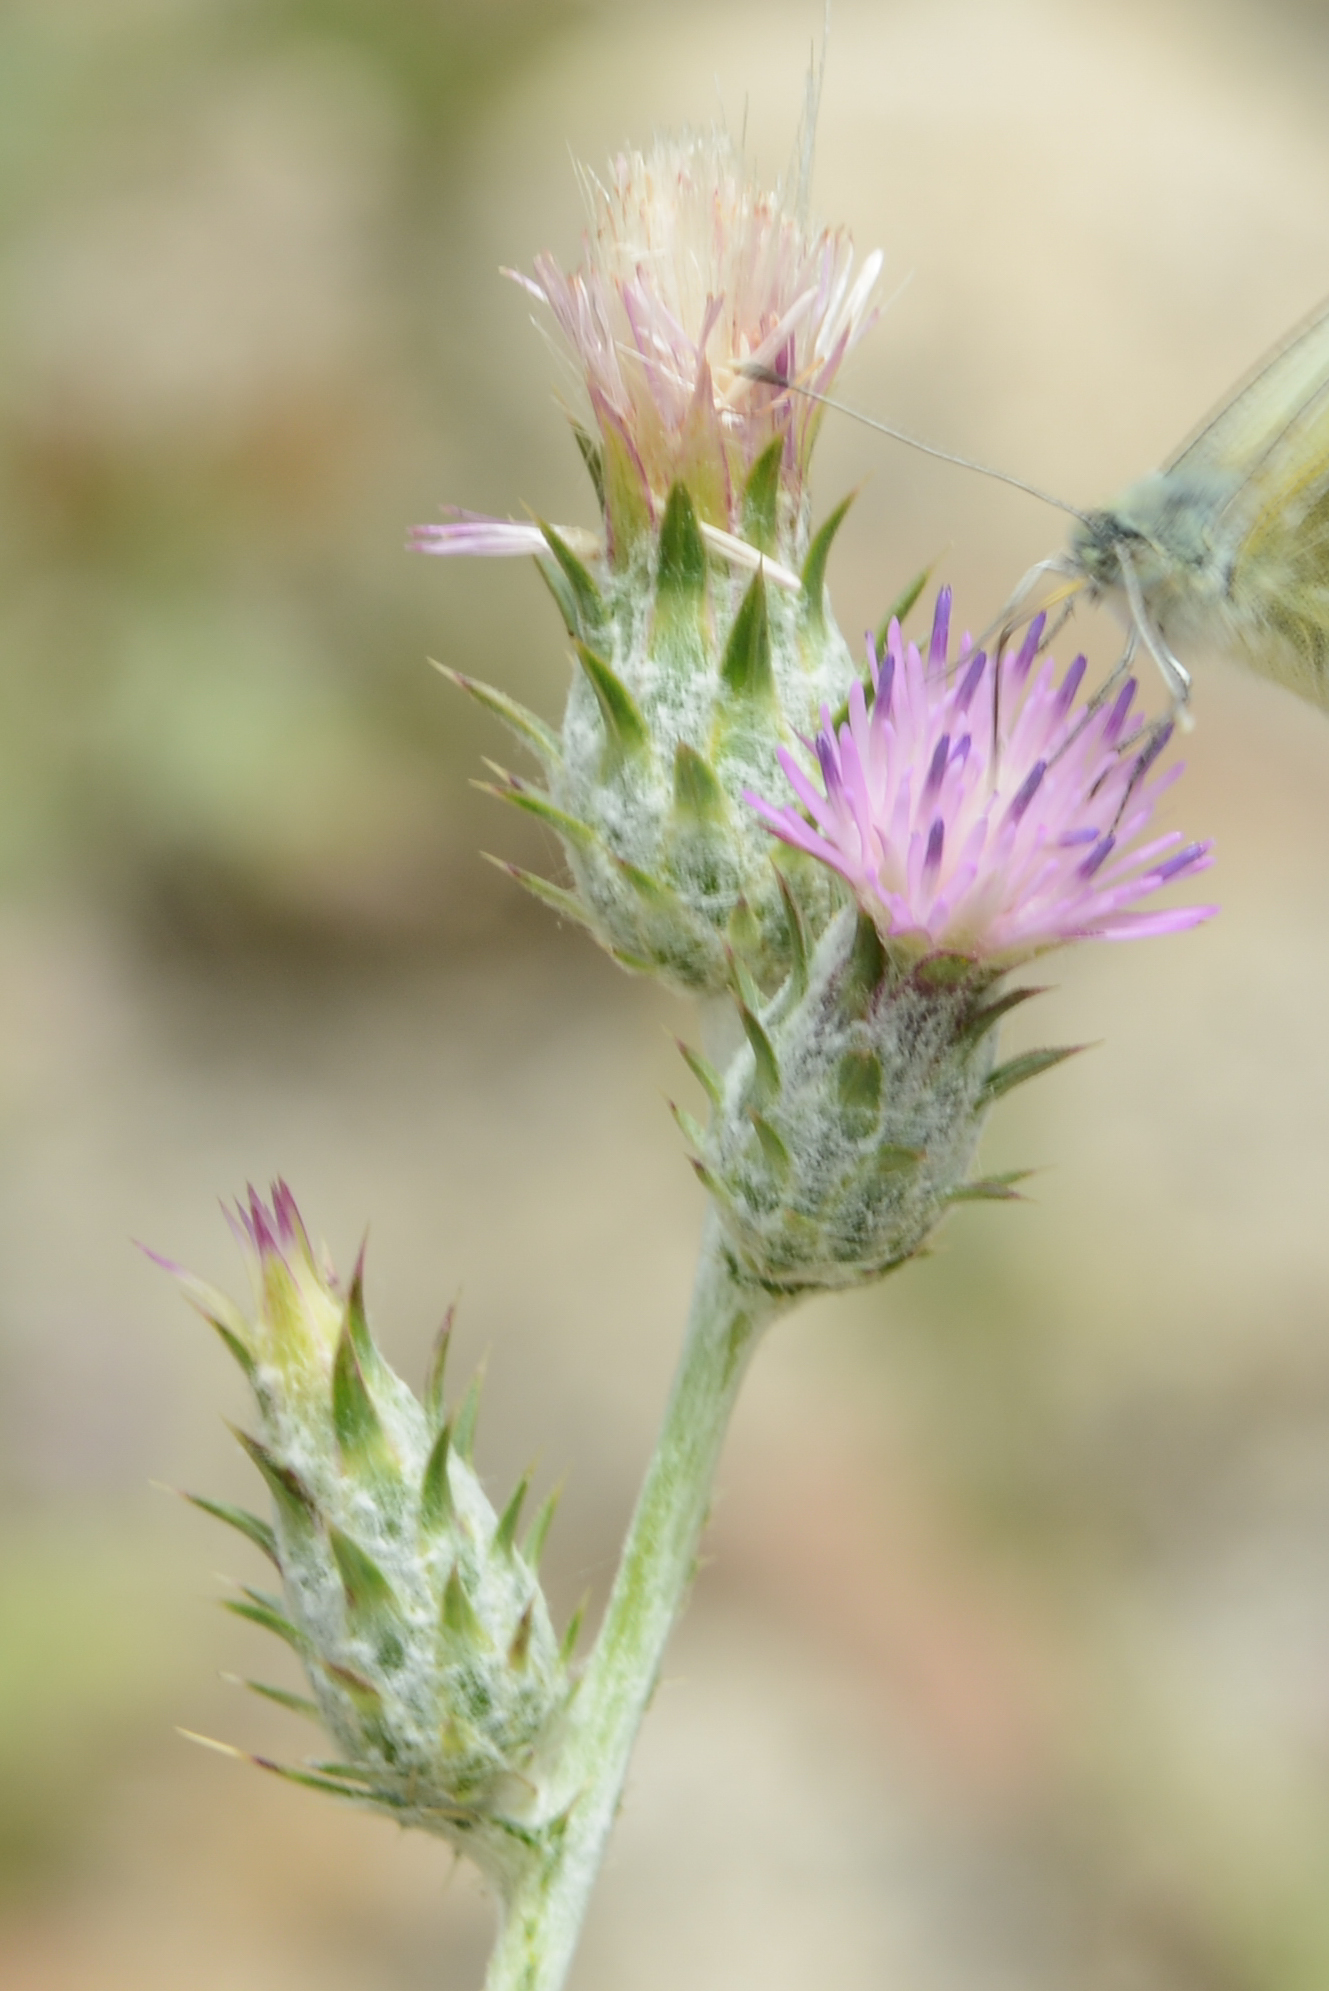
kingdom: Plantae
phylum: Tracheophyta
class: Magnoliopsida
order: Asterales
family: Asteraceae
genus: Carduus
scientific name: Carduus pycnocephalus
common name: Plymouth thistle
